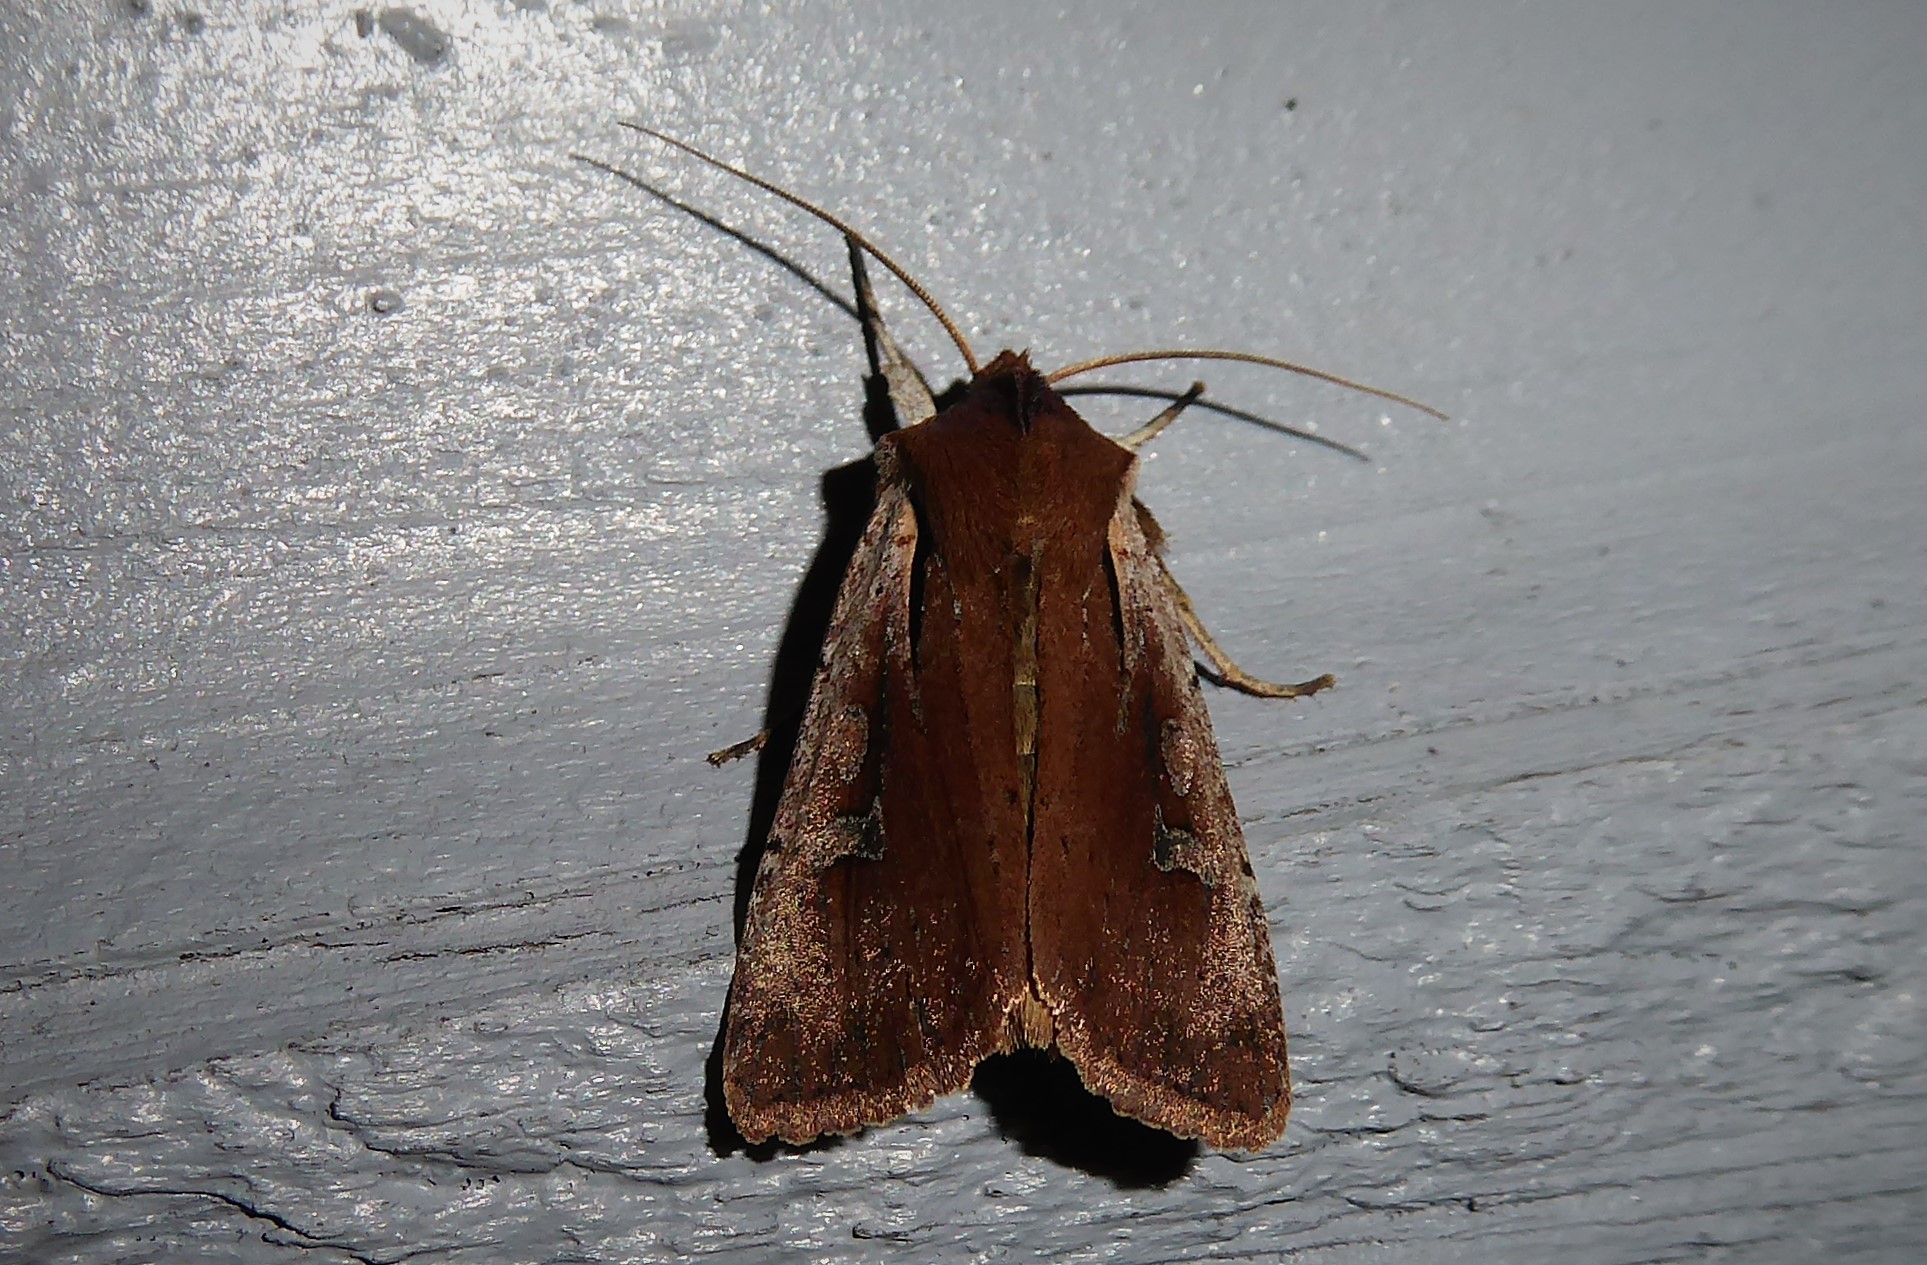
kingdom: Animalia
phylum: Arthropoda
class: Insecta
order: Lepidoptera
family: Noctuidae
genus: Ichneutica
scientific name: Ichneutica atristriga
